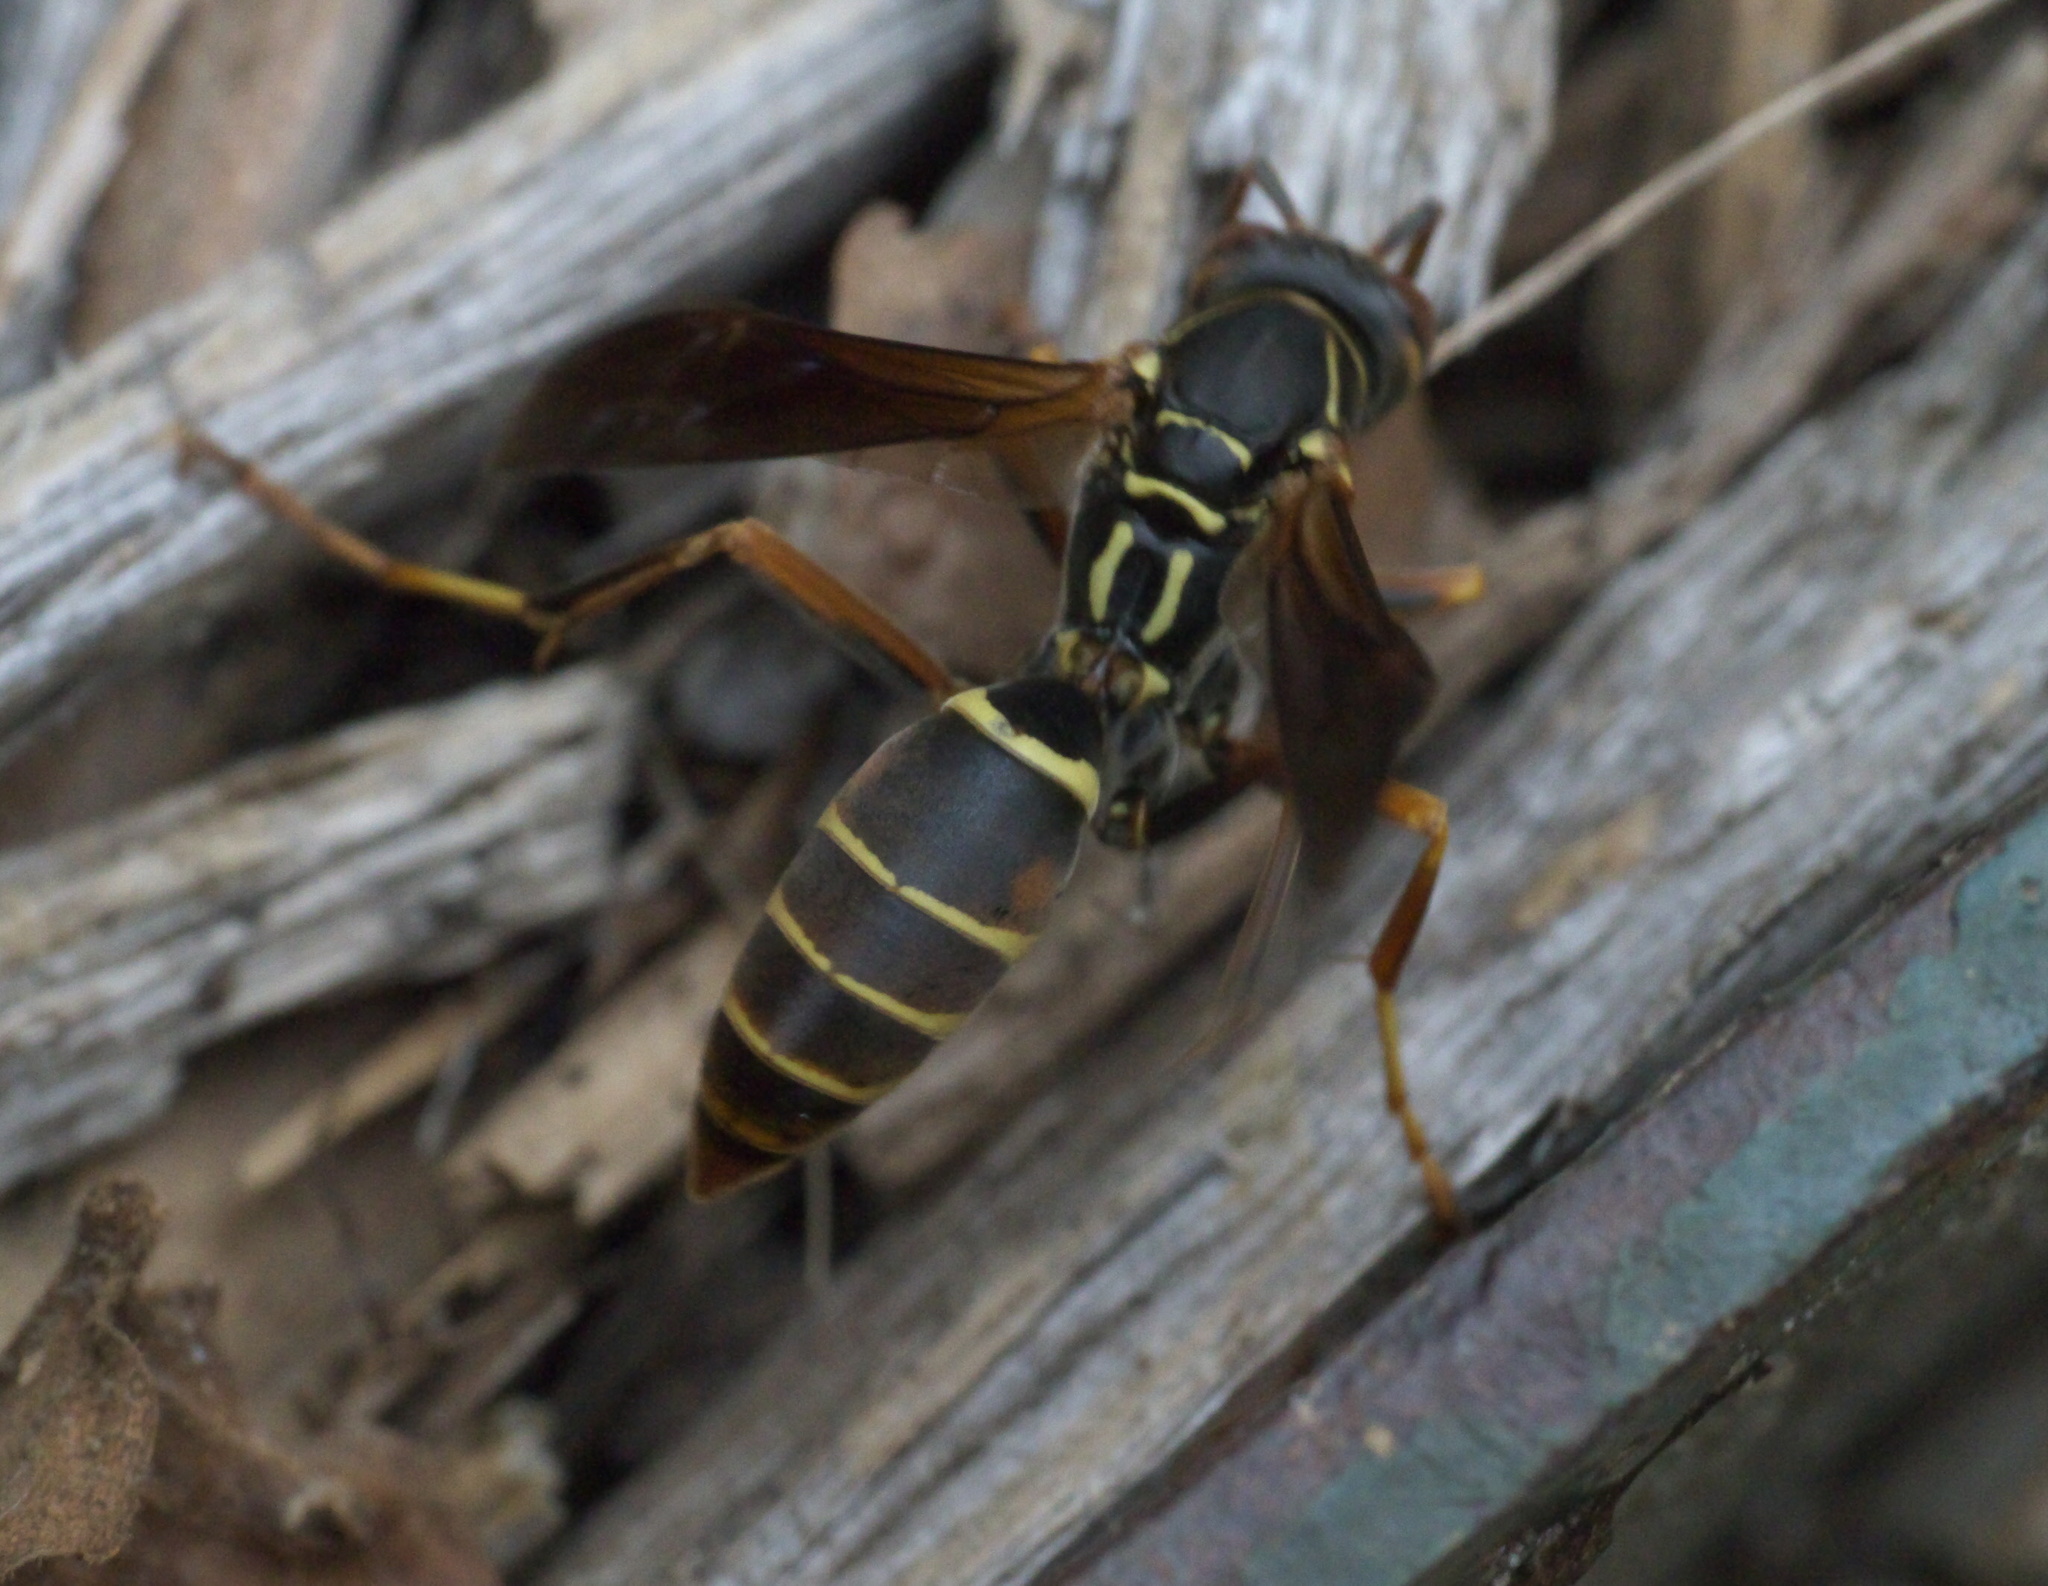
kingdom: Animalia
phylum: Arthropoda
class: Insecta
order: Hymenoptera
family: Eumenidae
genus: Polistes
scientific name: Polistes fuscatus
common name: Dark paper wasp
